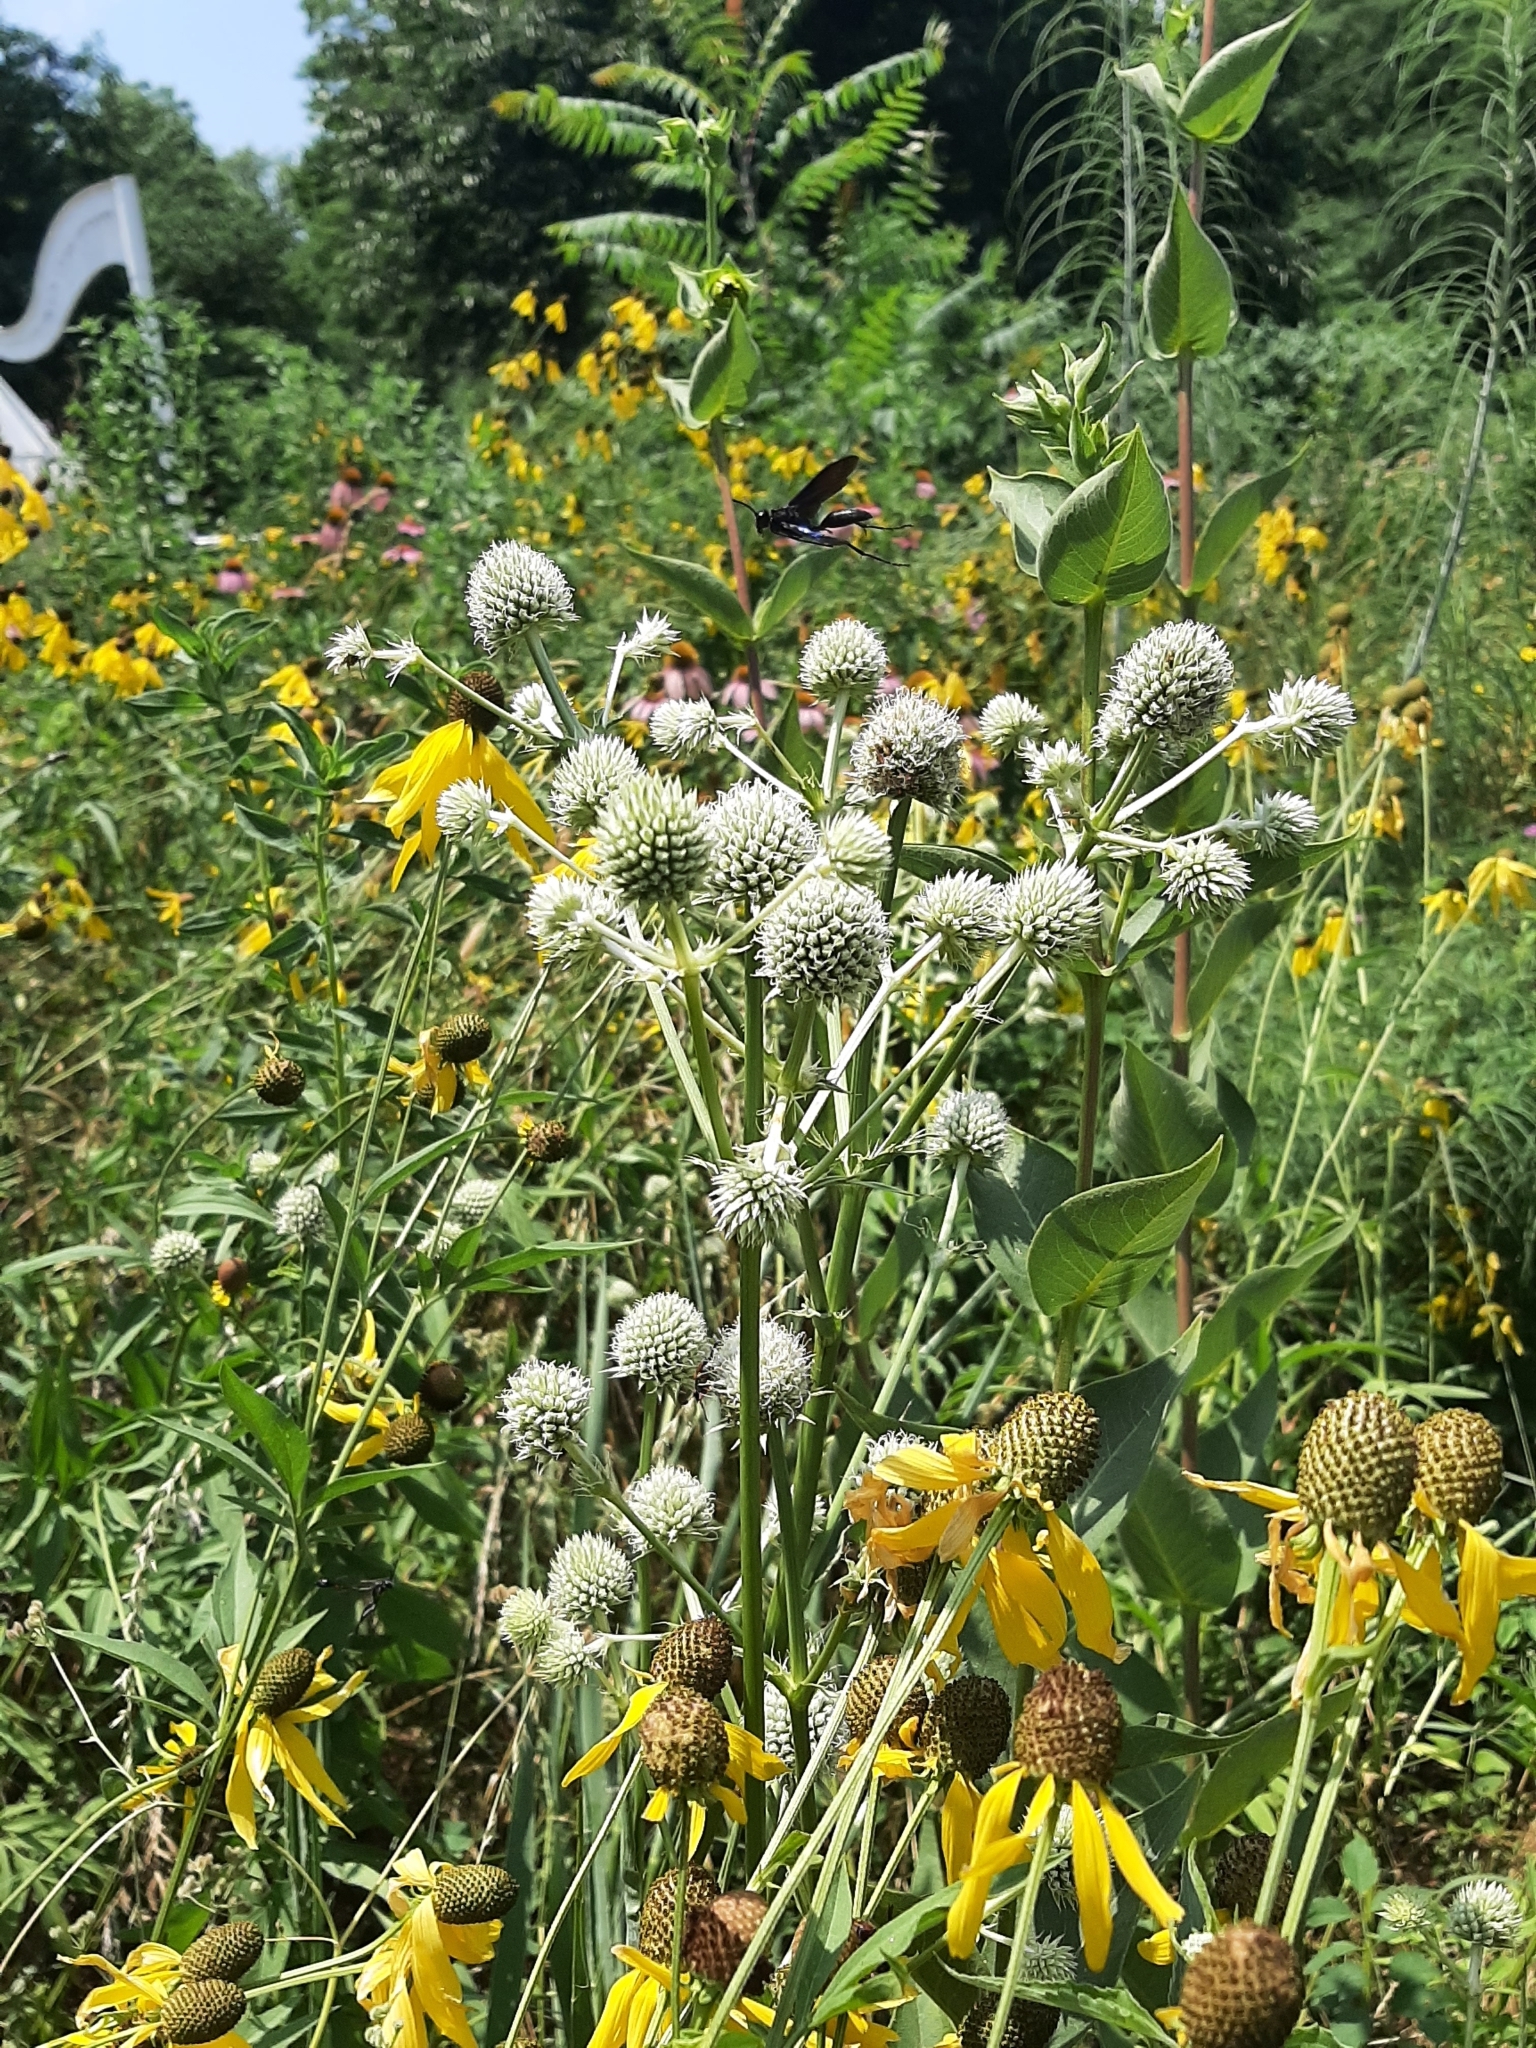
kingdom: Plantae
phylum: Tracheophyta
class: Magnoliopsida
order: Apiales
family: Apiaceae
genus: Eryngium
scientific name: Eryngium yuccifolium
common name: Button eryngo
